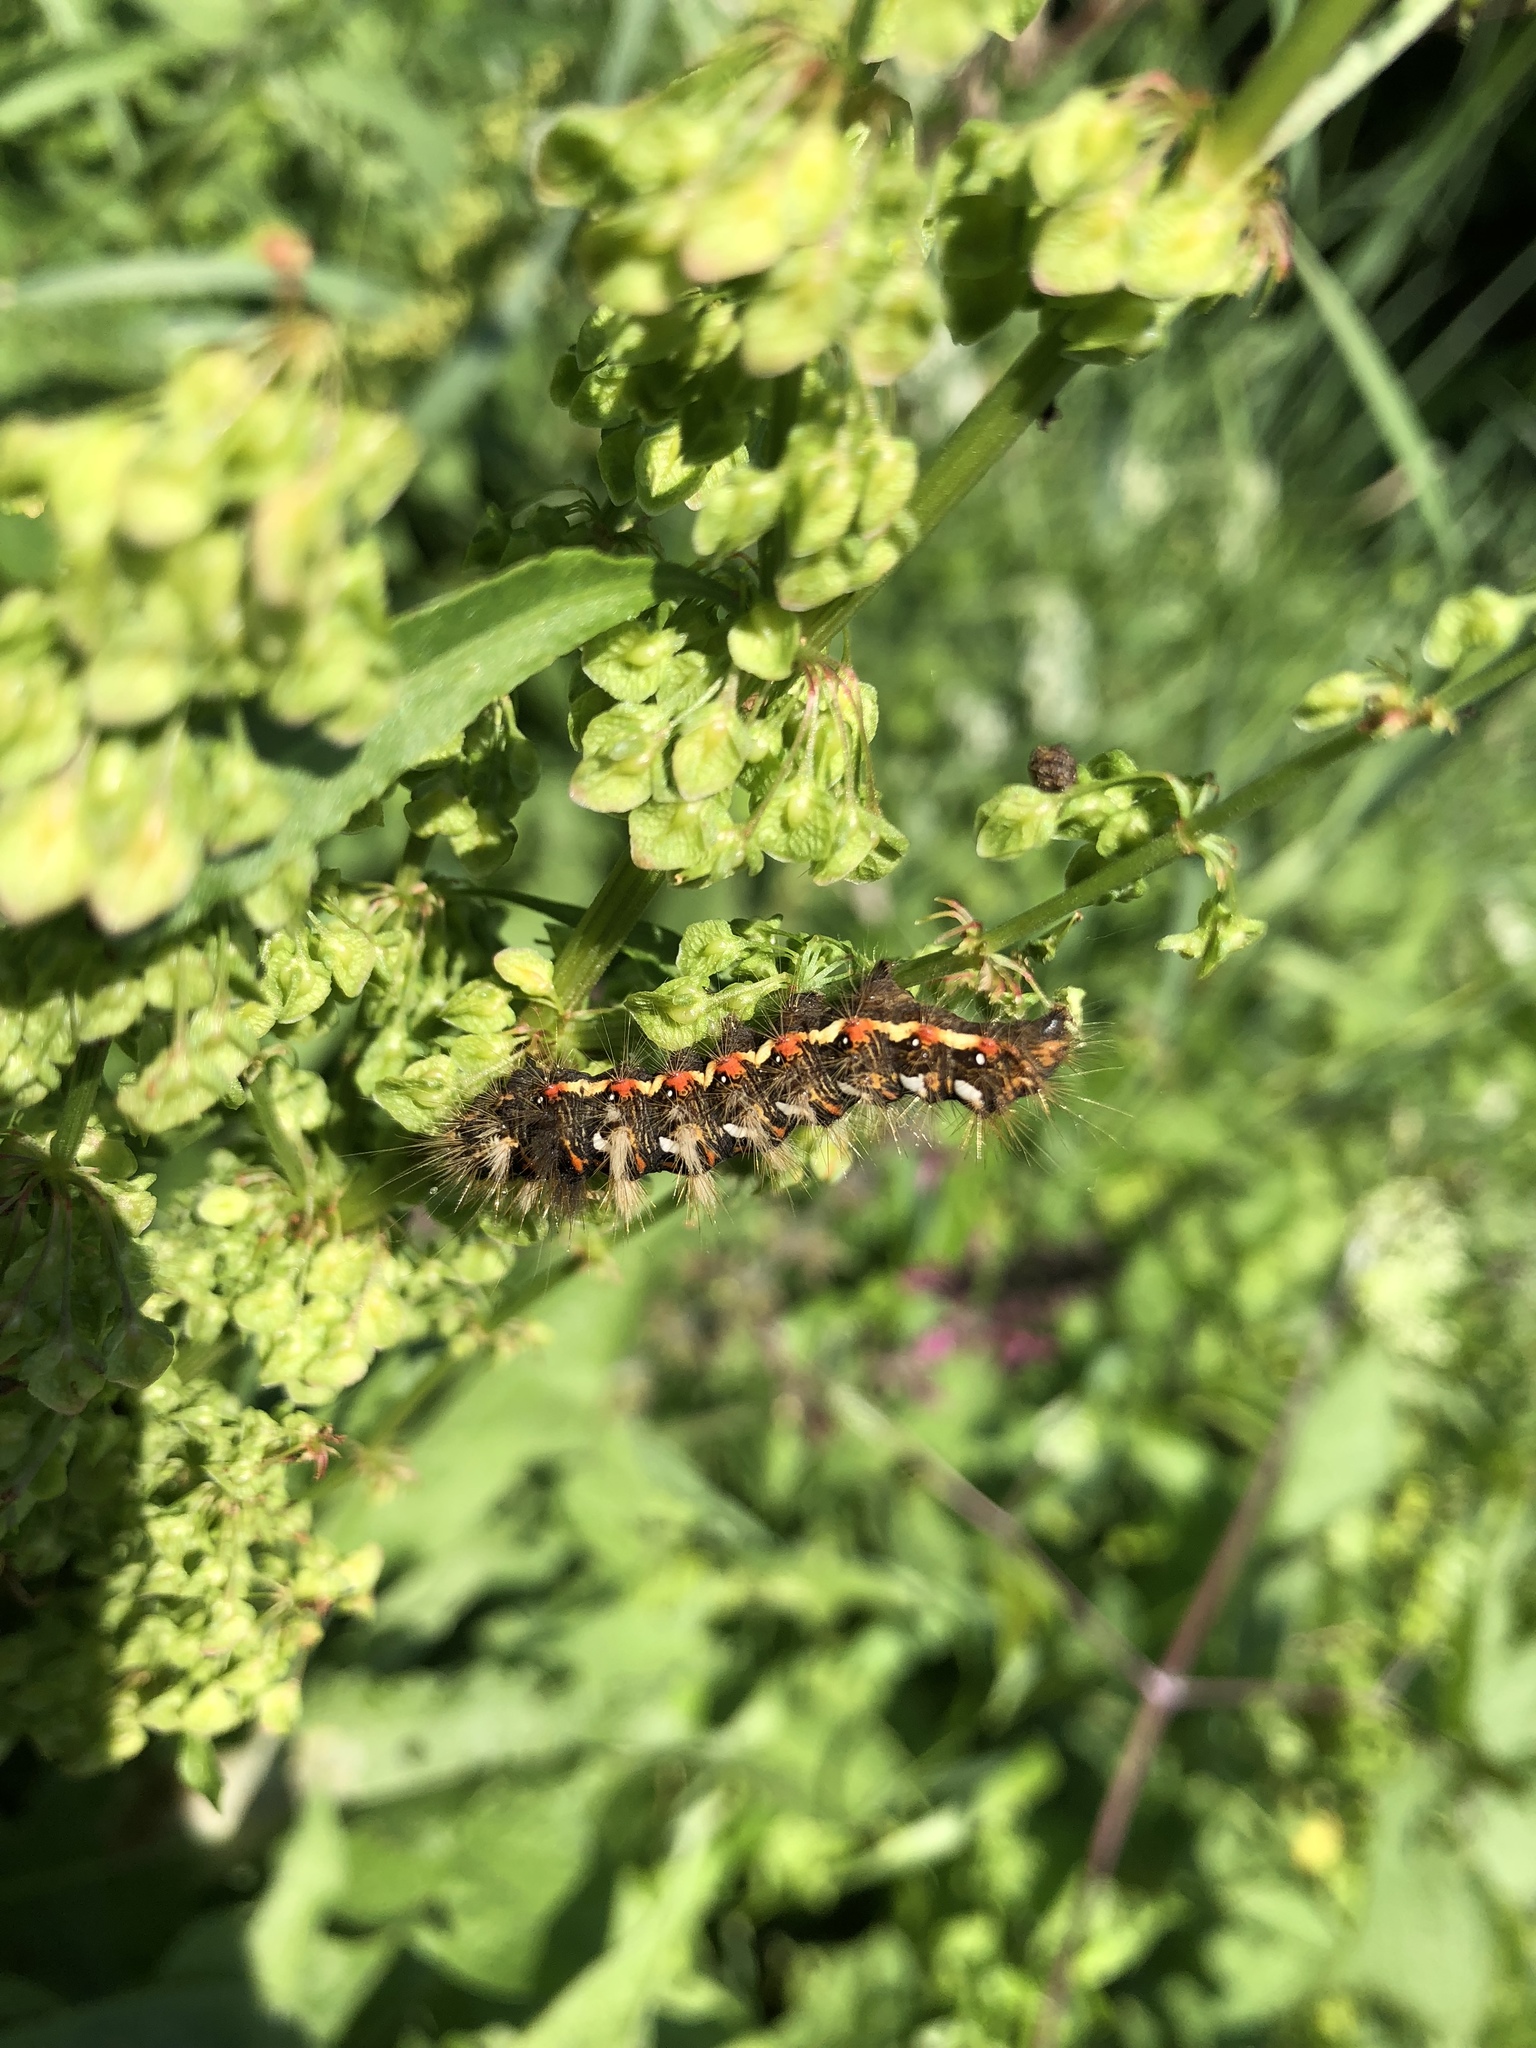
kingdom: Animalia
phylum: Arthropoda
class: Insecta
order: Lepidoptera
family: Noctuidae
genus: Acronicta
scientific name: Acronicta rumicis
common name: Knot grass
